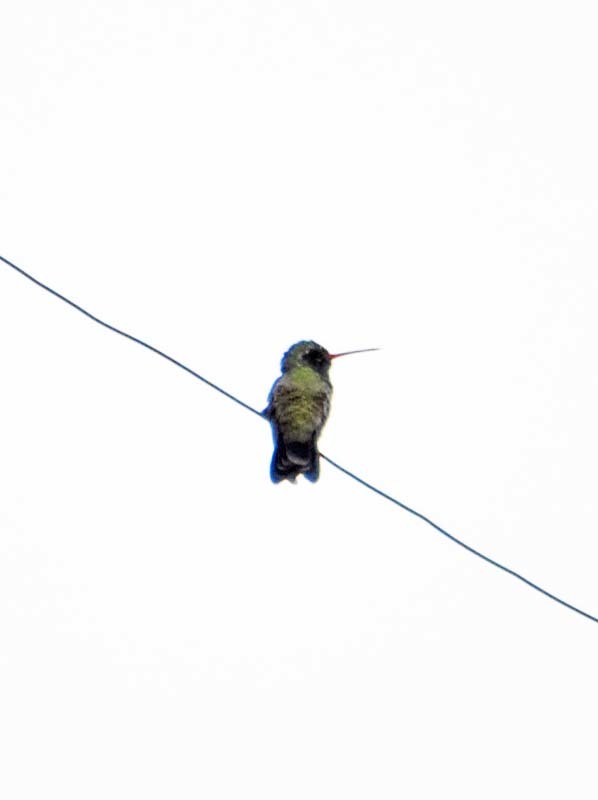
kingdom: Animalia
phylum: Chordata
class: Aves
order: Apodiformes
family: Trochilidae
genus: Cynanthus
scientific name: Cynanthus latirostris
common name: Broad-billed hummingbird
